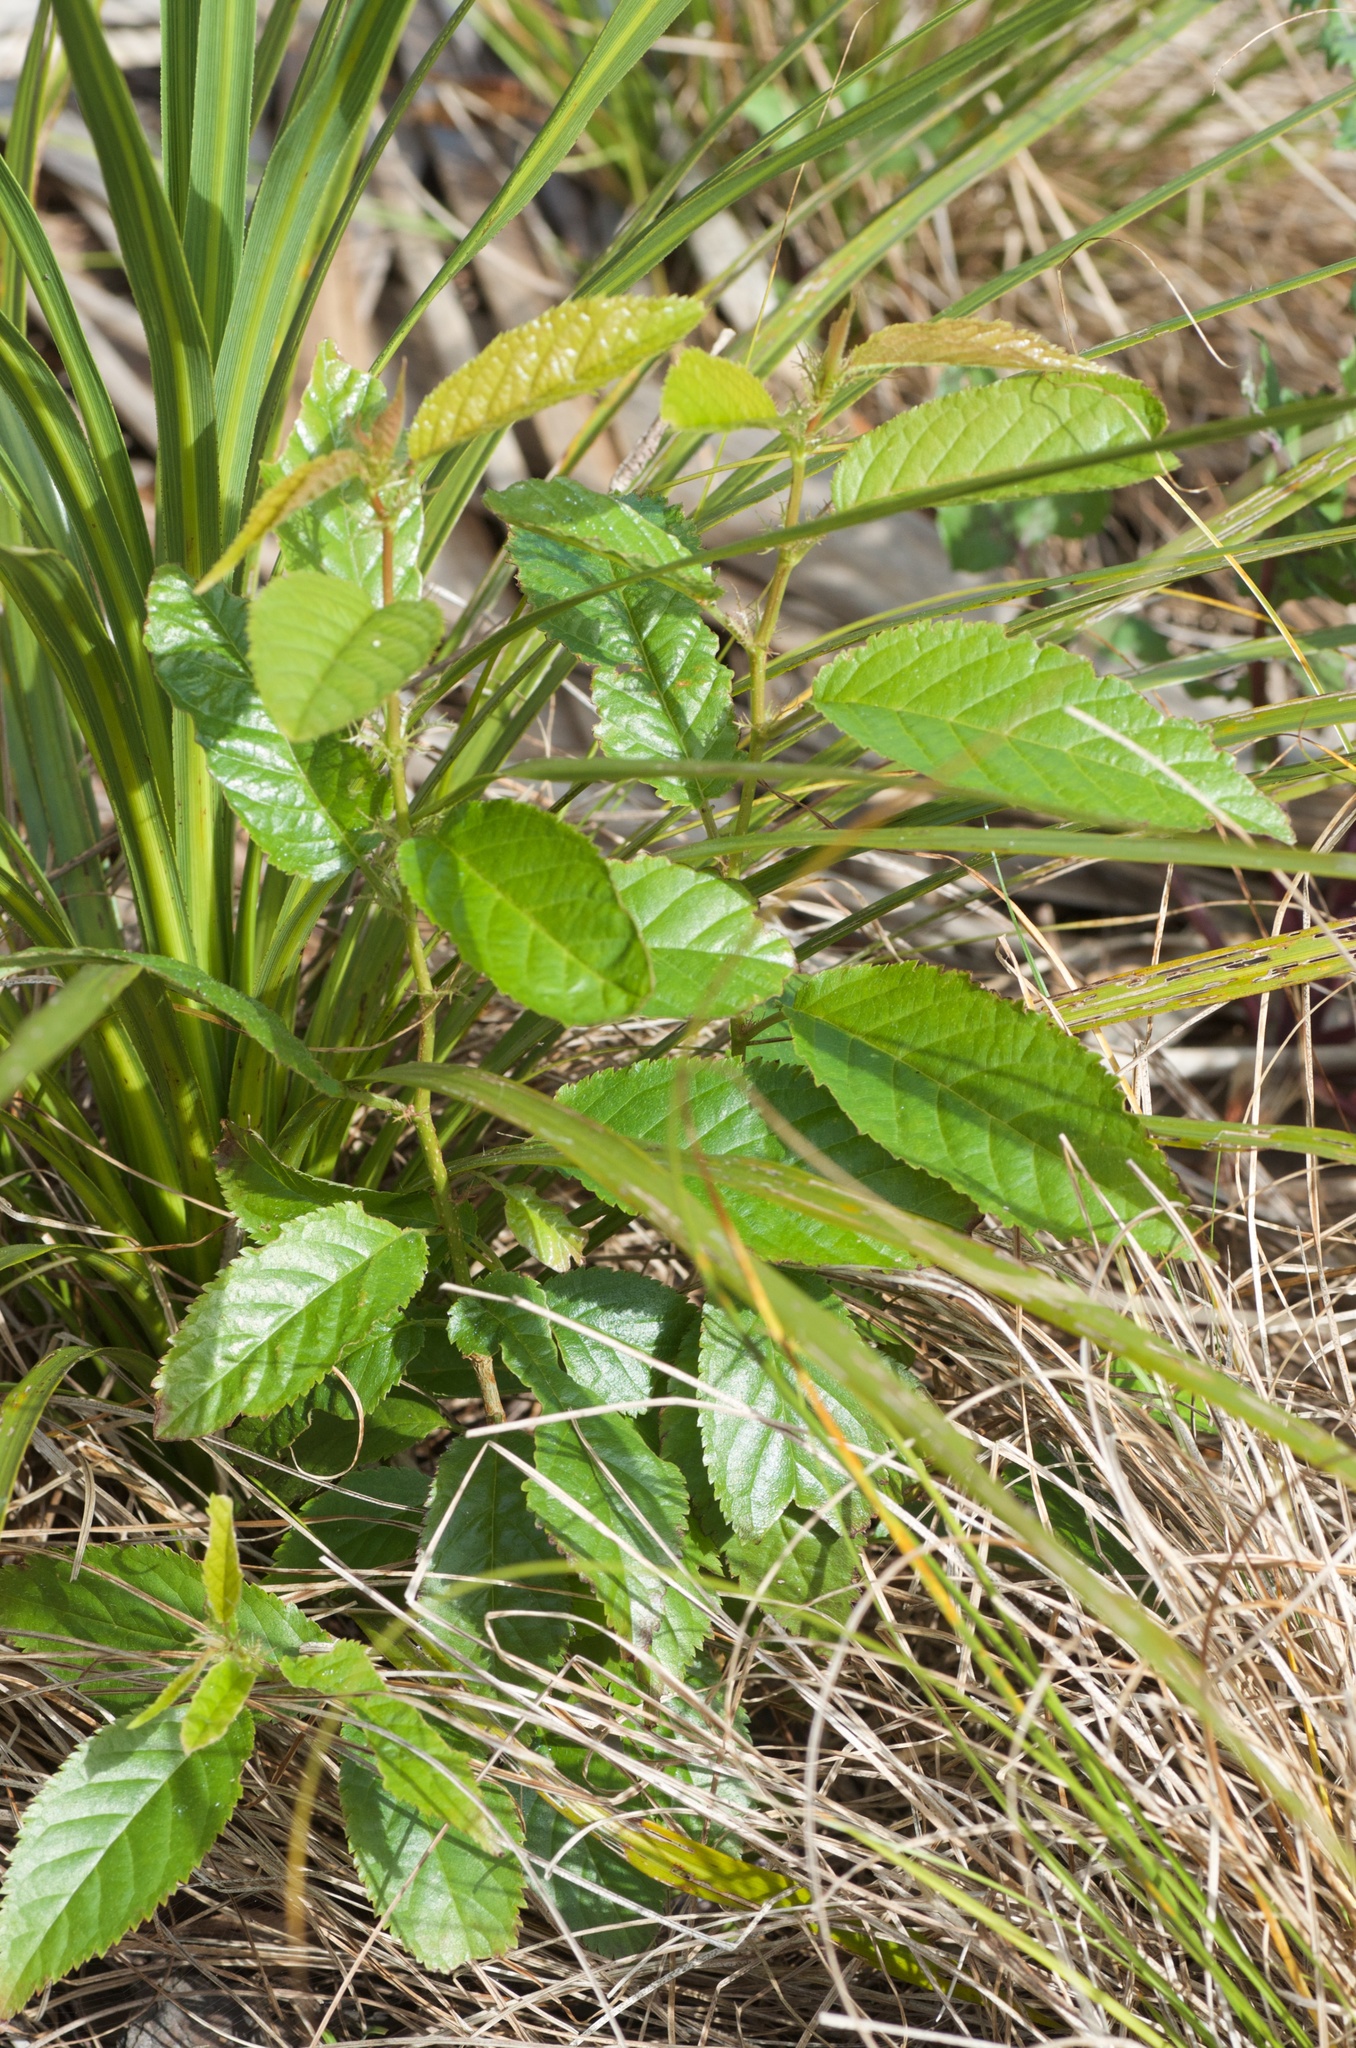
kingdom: Plantae
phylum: Tracheophyta
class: Magnoliopsida
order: Rosales
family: Rosaceae
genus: Prunus
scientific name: Prunus campanulata
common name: Taiwan flowering cherry
